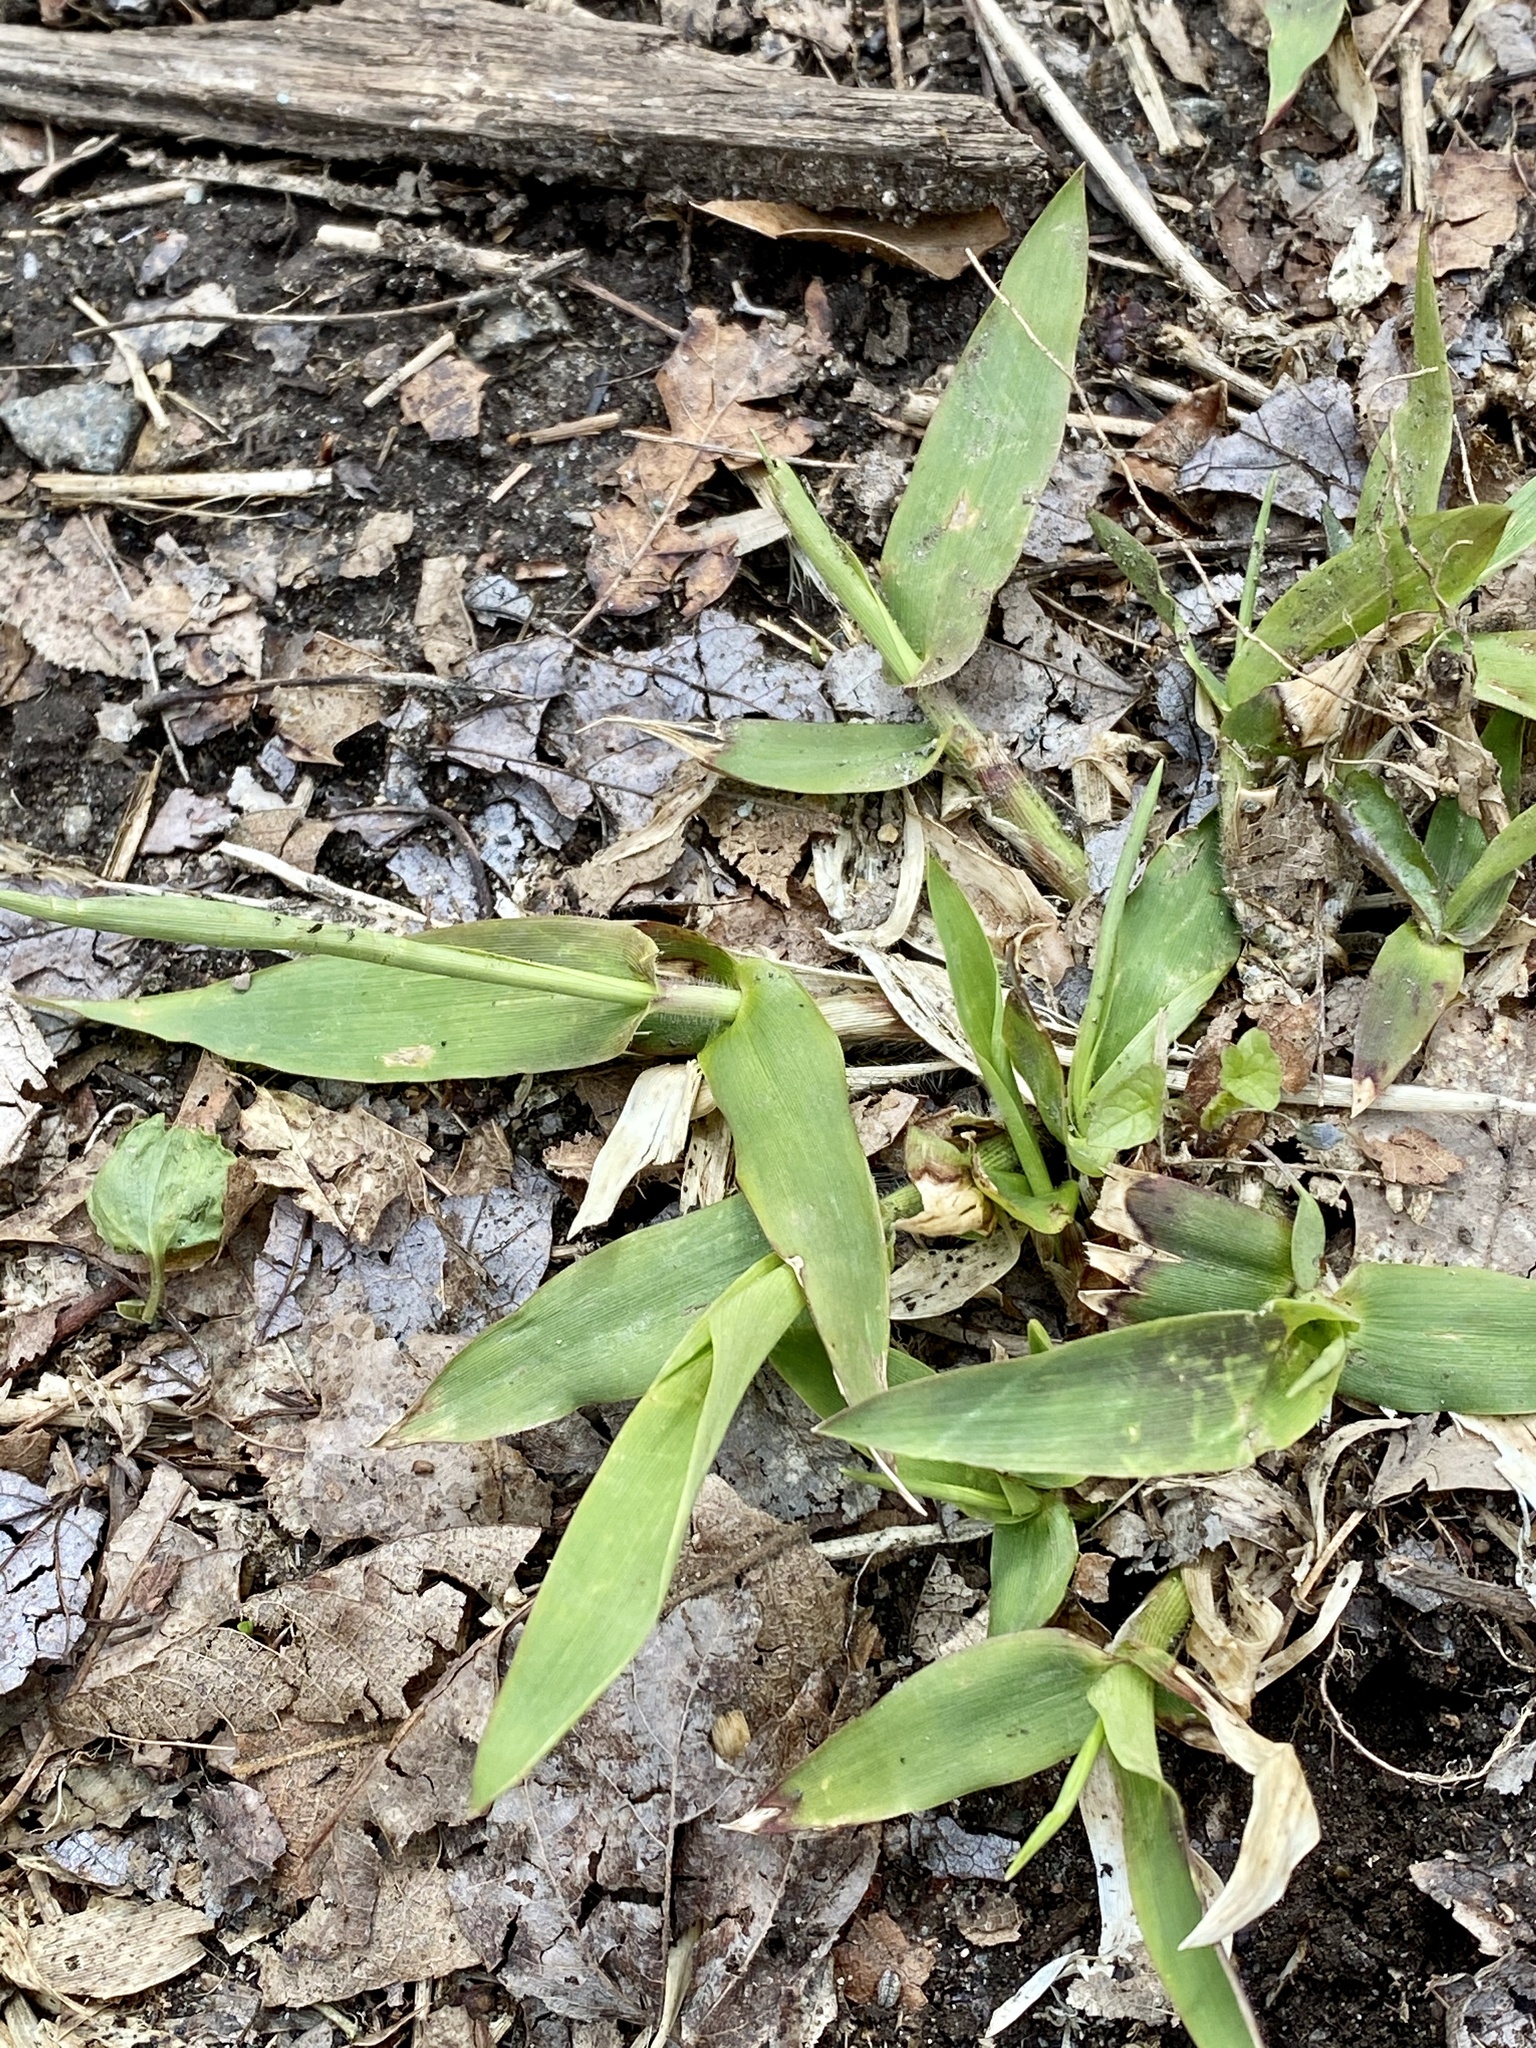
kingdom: Plantae
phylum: Tracheophyta
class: Liliopsida
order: Poales
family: Poaceae
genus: Dichanthelium
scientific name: Dichanthelium clandestinum
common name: Deer-tongue grass
